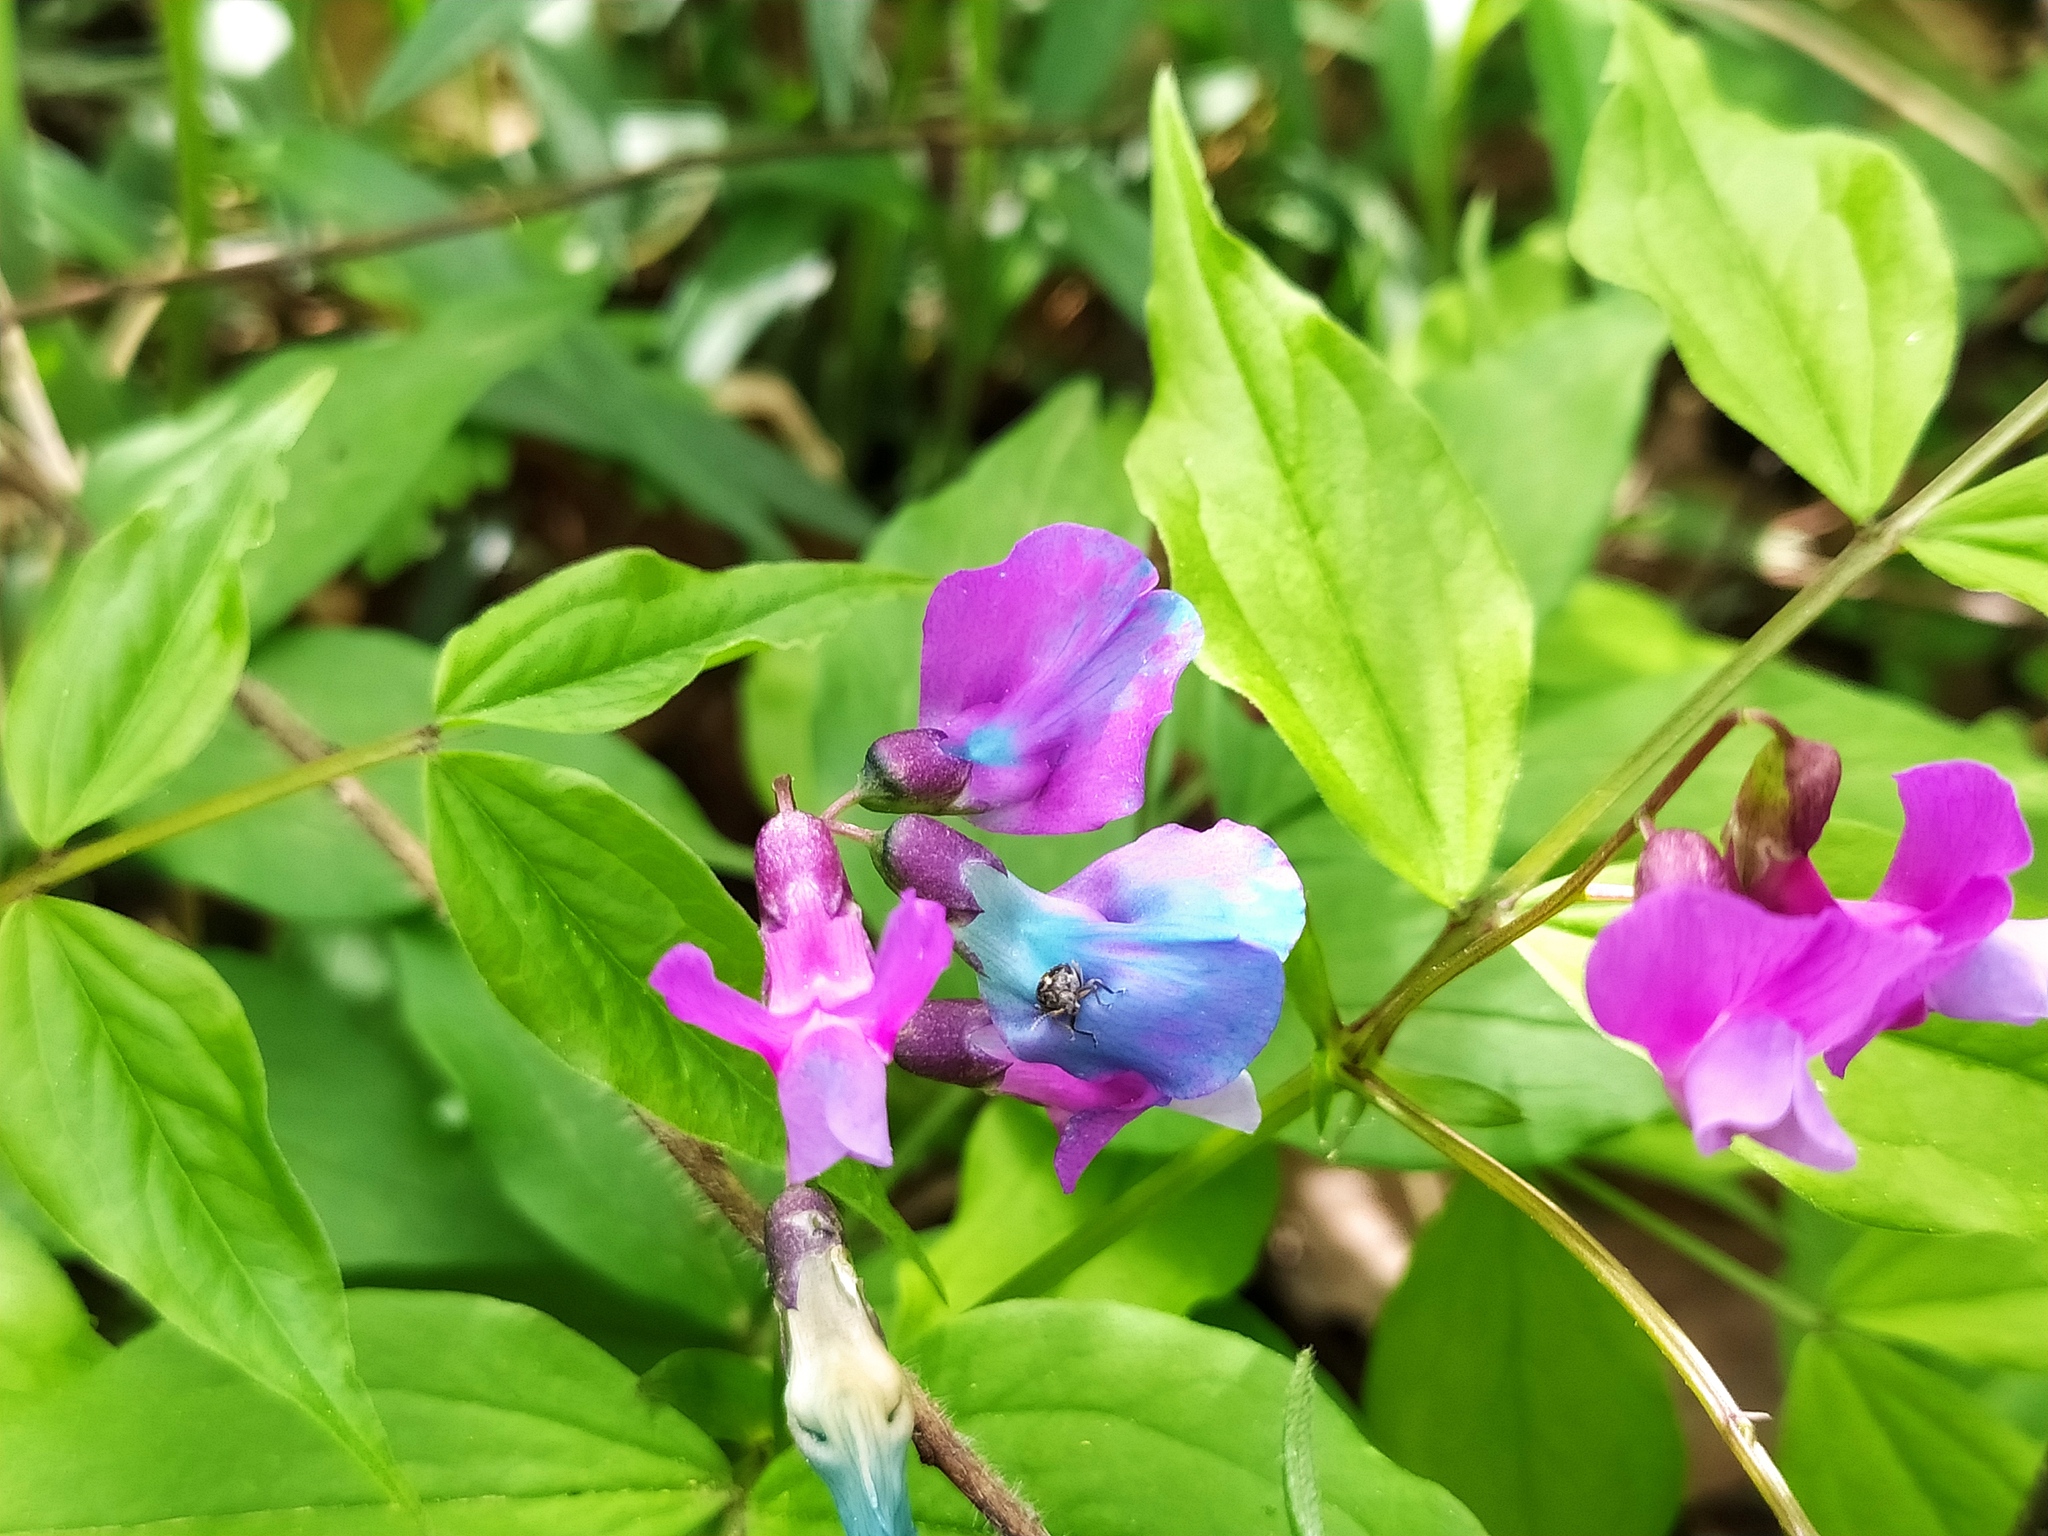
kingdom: Plantae
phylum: Tracheophyta
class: Magnoliopsida
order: Fabales
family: Fabaceae
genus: Lathyrus
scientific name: Lathyrus vernus
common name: Spring pea
